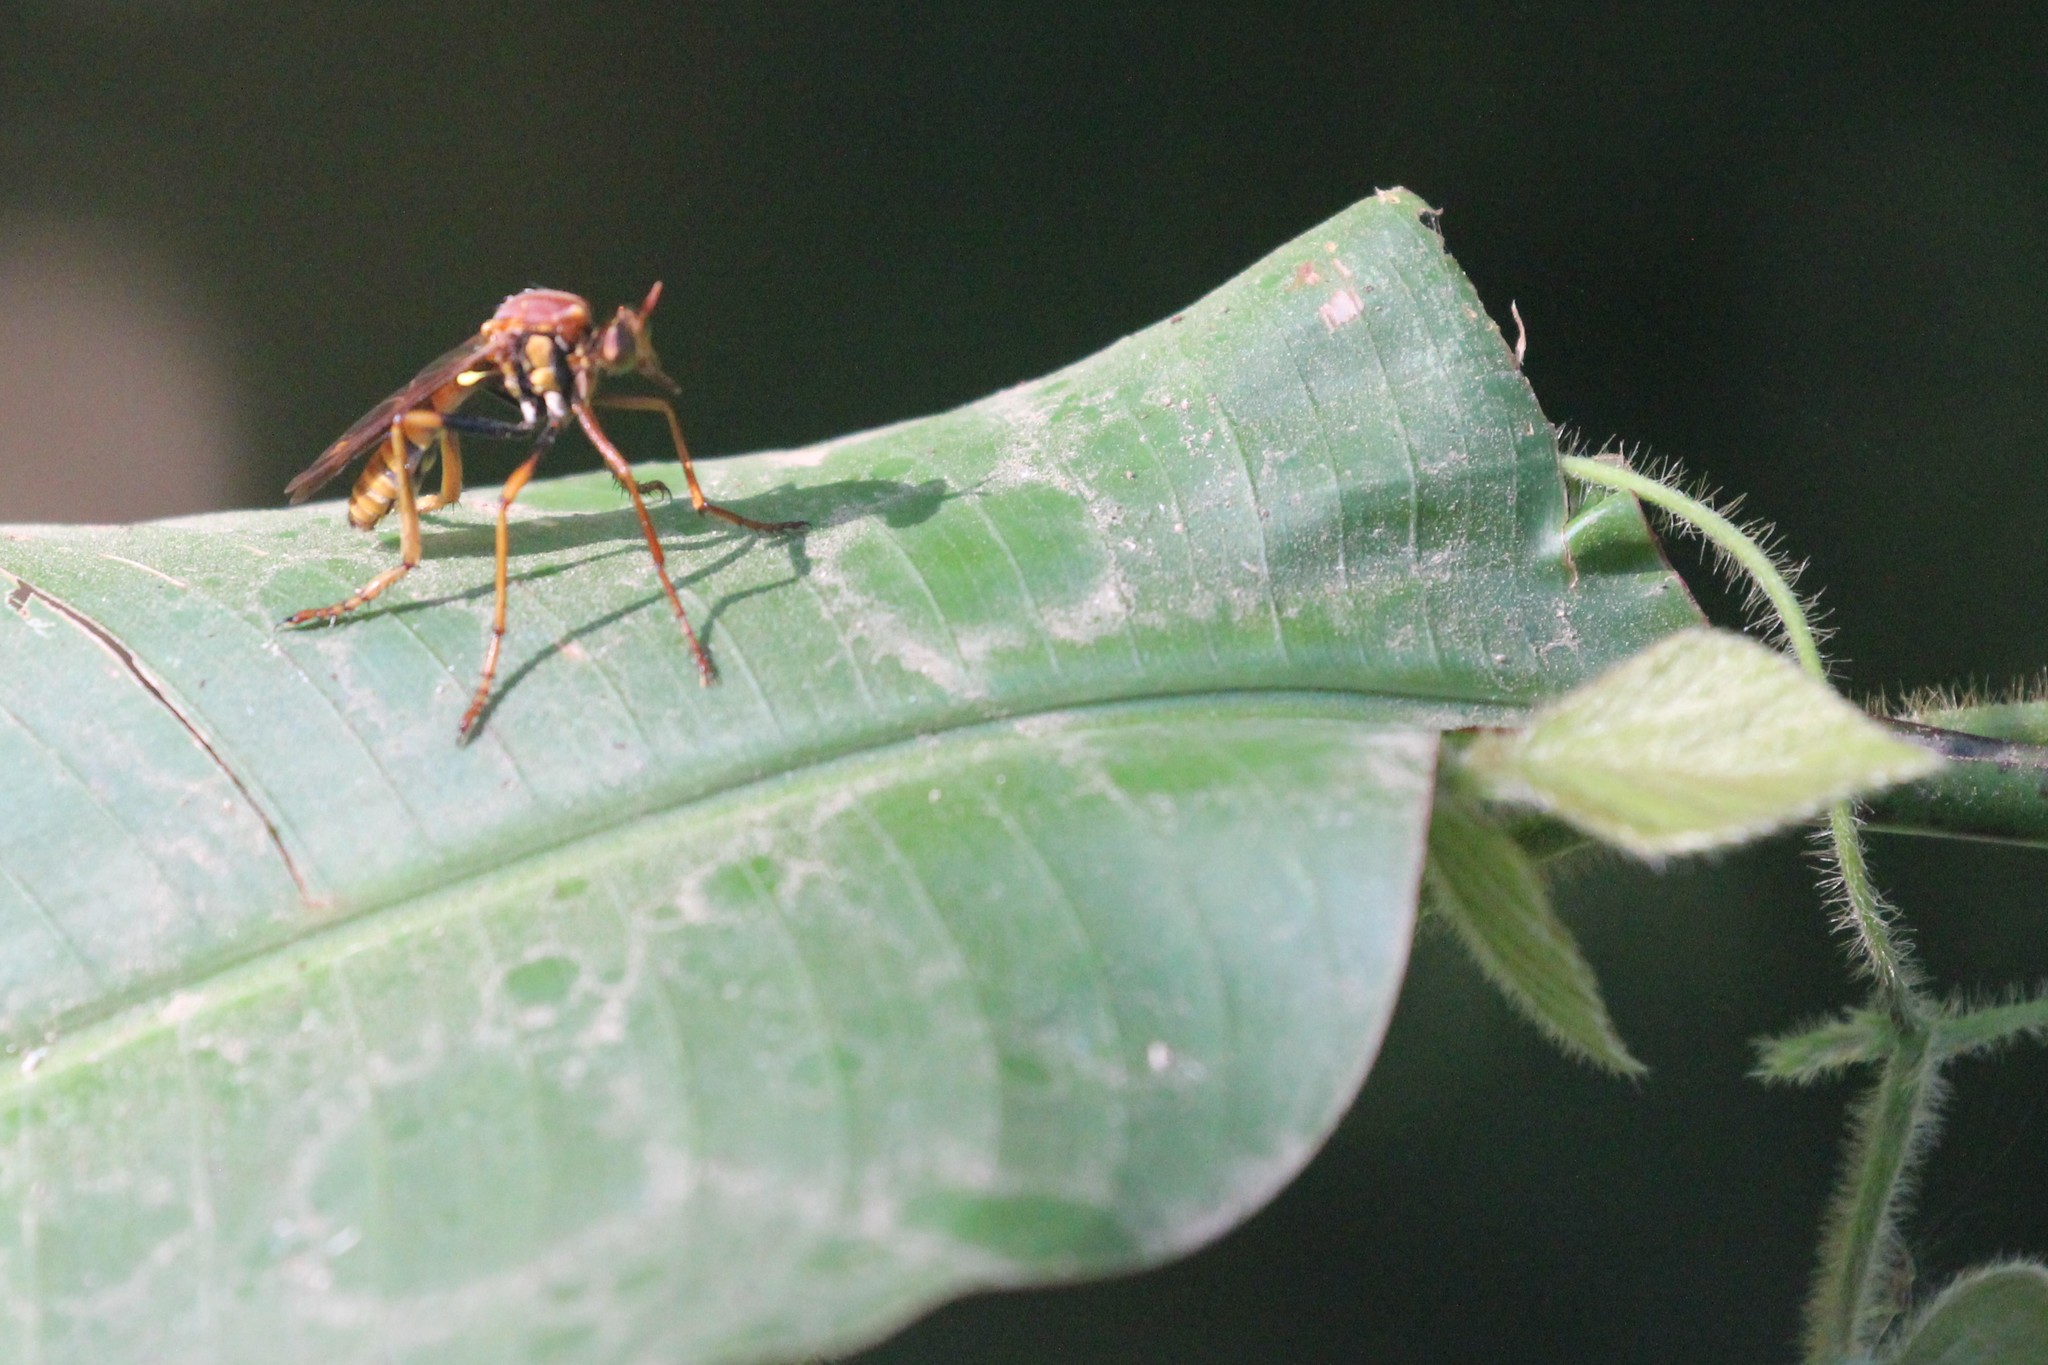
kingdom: Animalia
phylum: Arthropoda
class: Insecta
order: Diptera
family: Asilidae
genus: Senobasis
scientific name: Senobasis annulata
